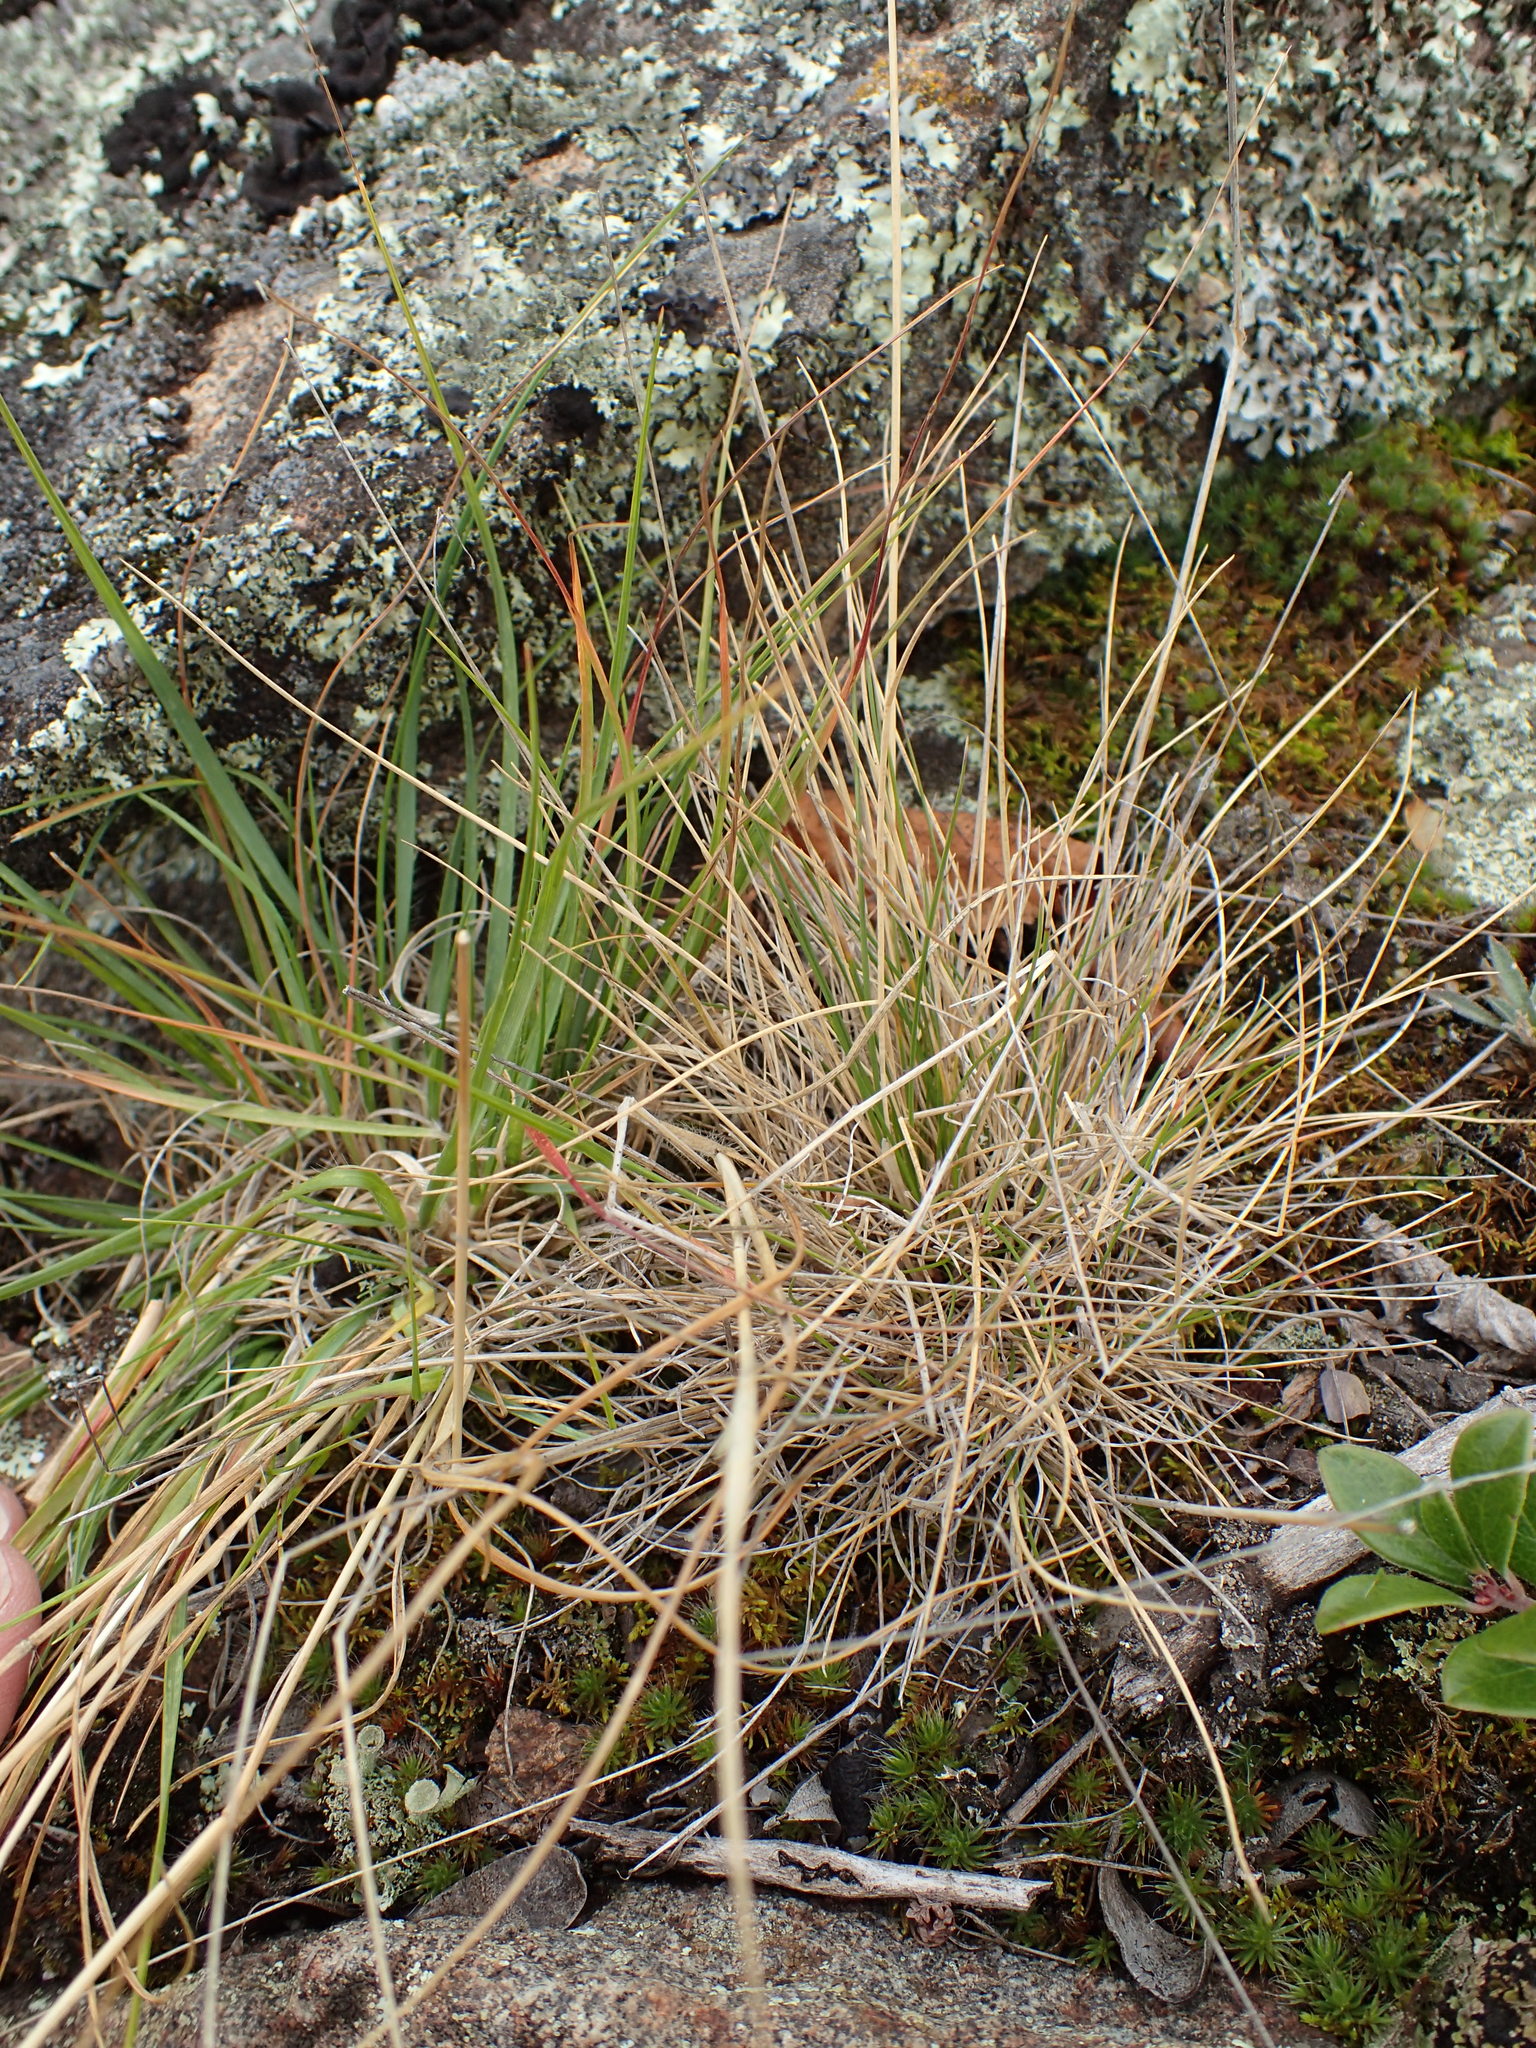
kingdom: Plantae
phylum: Tracheophyta
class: Liliopsida
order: Poales
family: Poaceae
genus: Festuca
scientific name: Festuca saximontana
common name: Mountain fescue
